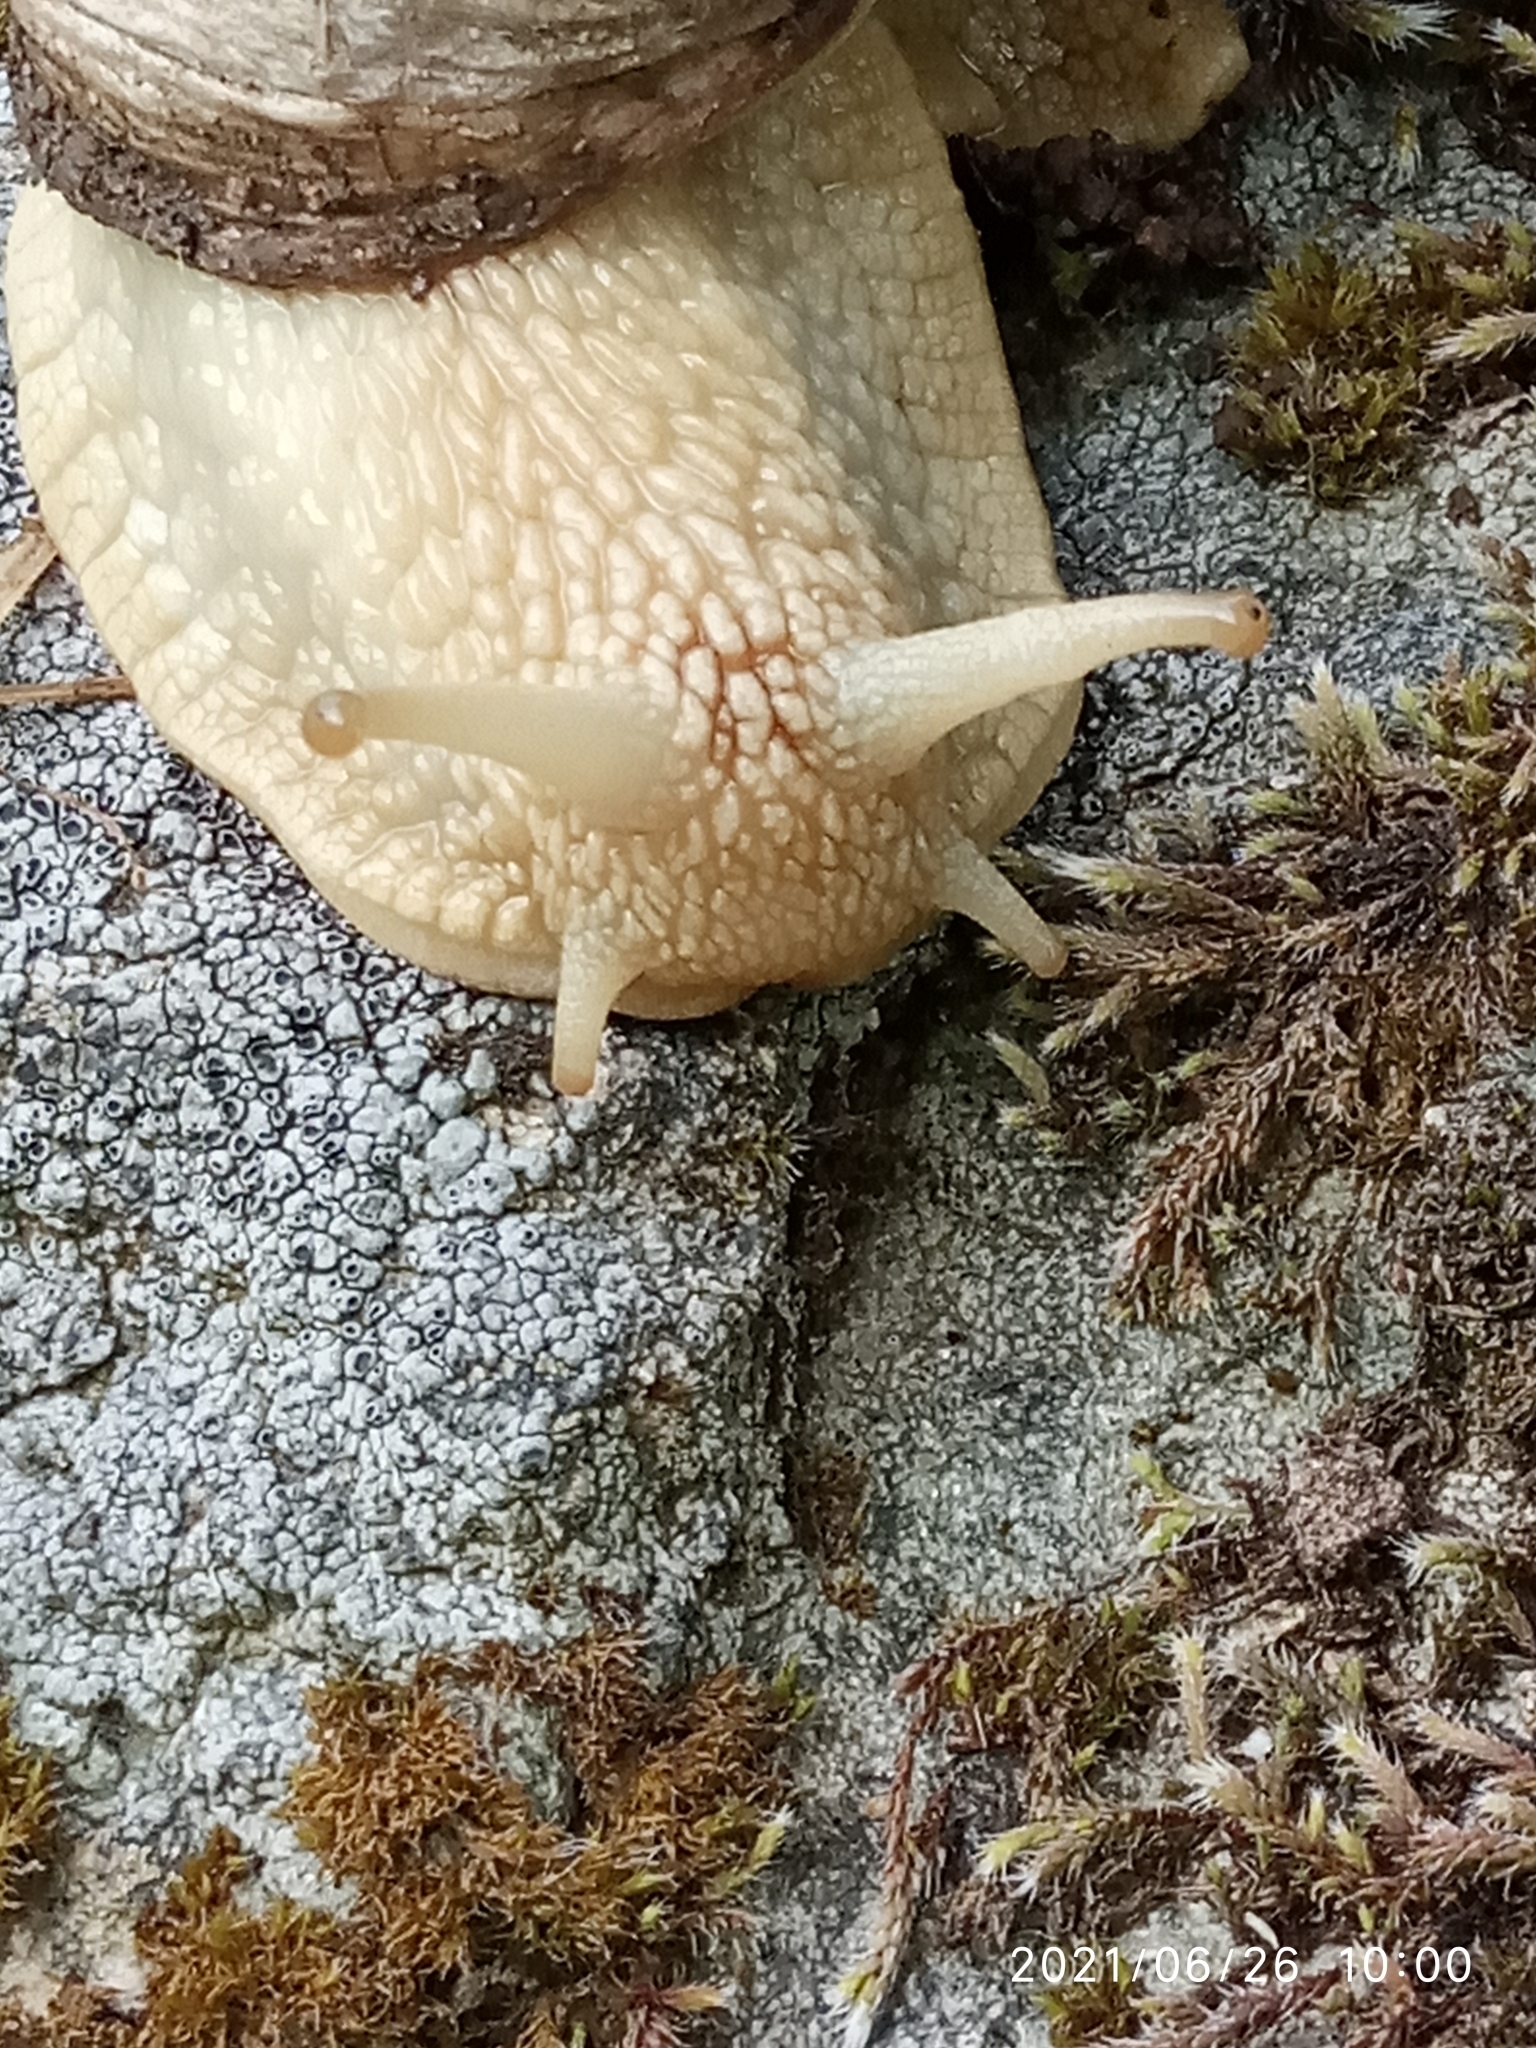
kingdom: Animalia
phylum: Mollusca
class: Gastropoda
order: Stylommatophora
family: Helicidae
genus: Helix
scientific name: Helix pomatia
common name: Roman snail
